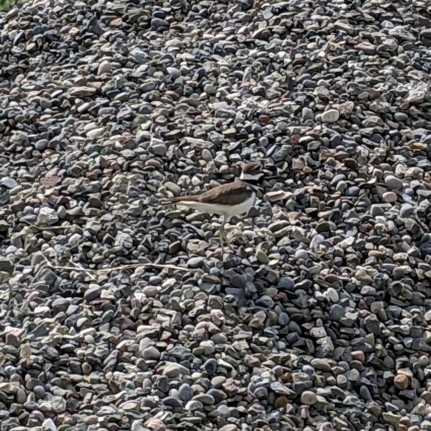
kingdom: Animalia
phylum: Chordata
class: Aves
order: Charadriiformes
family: Charadriidae
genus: Charadrius
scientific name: Charadrius vociferus
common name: Killdeer
